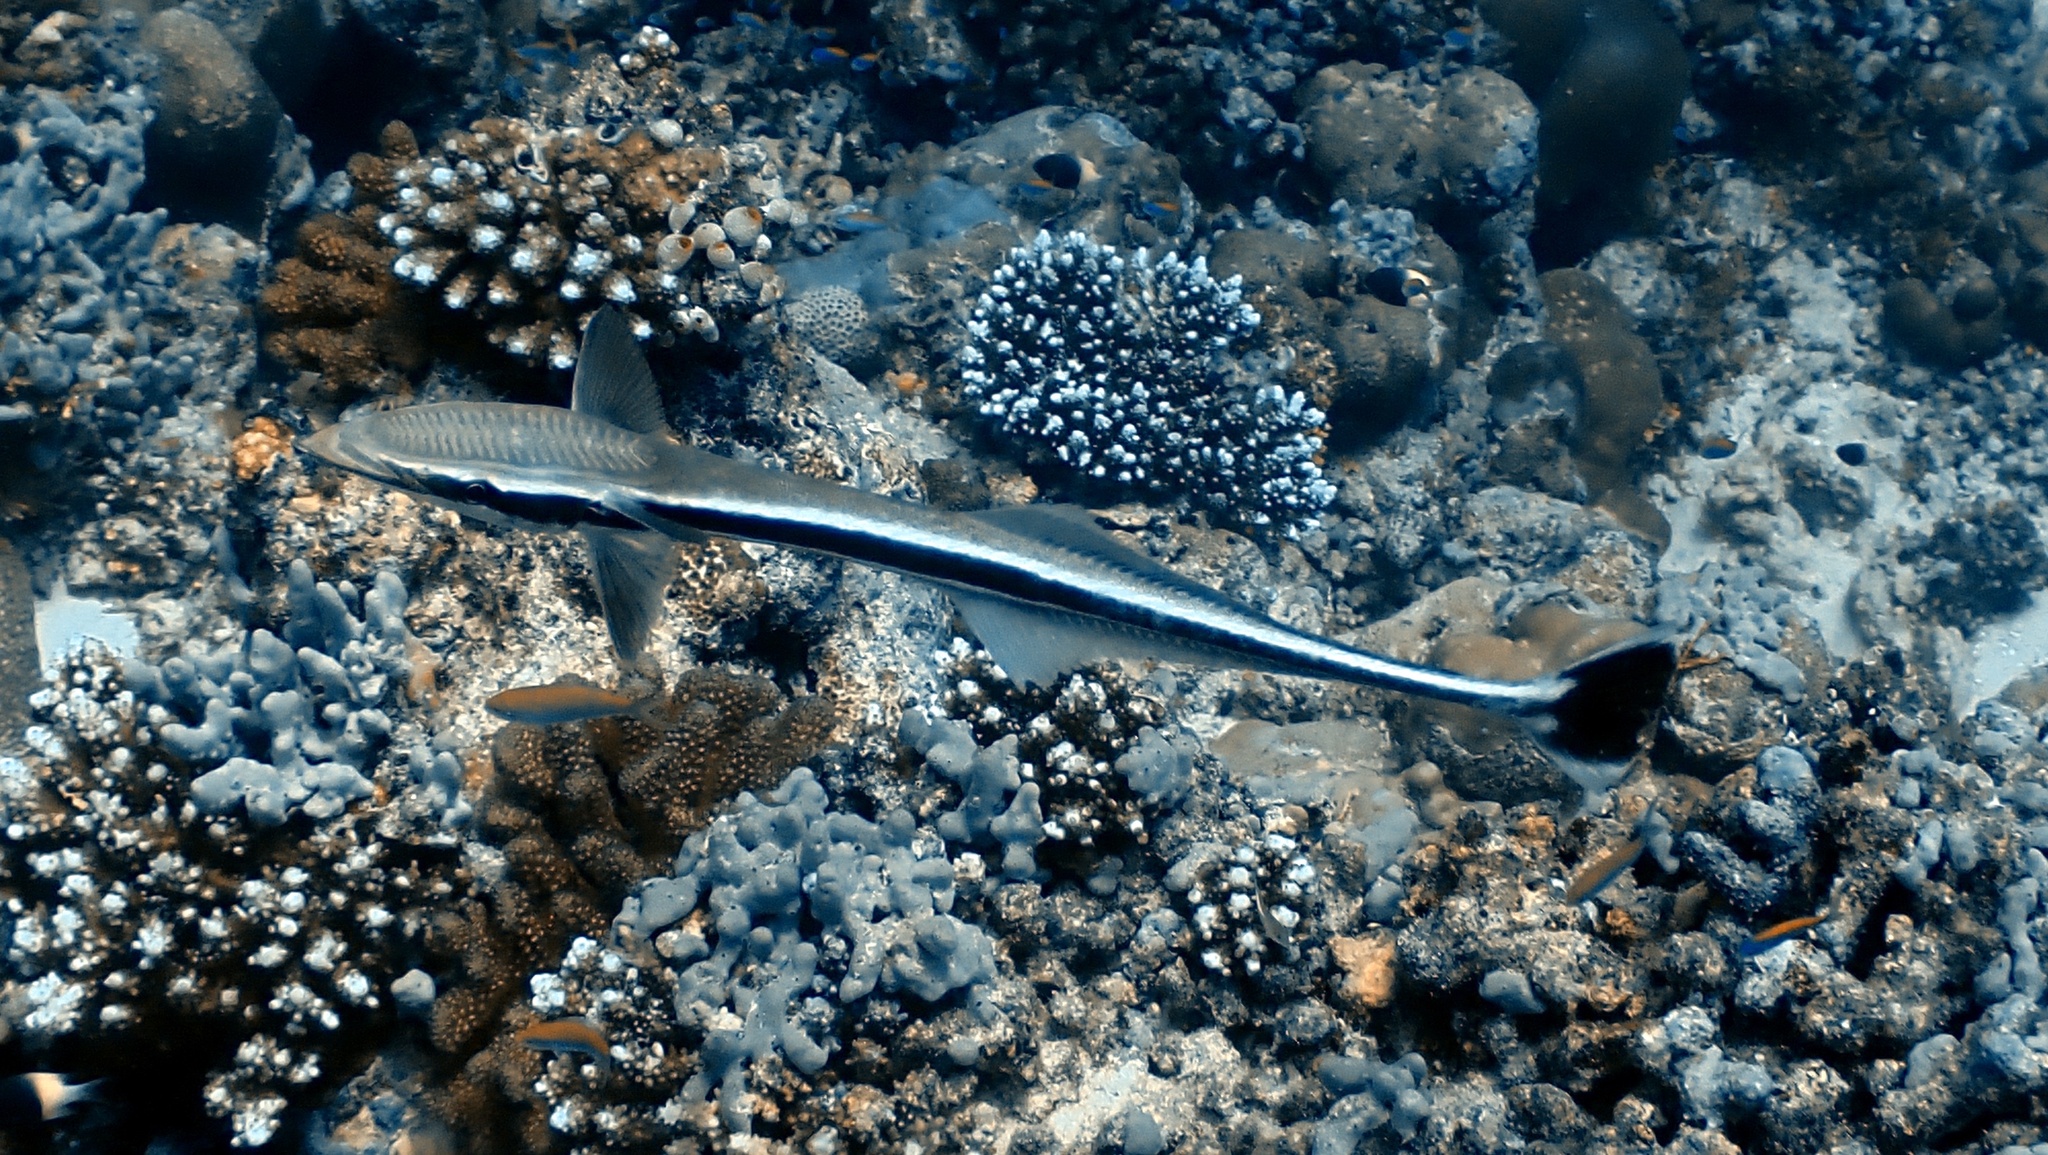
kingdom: Animalia
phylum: Chordata
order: Perciformes
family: Echeneidae
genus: Echeneis
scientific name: Echeneis naucrates
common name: Sharksucker
